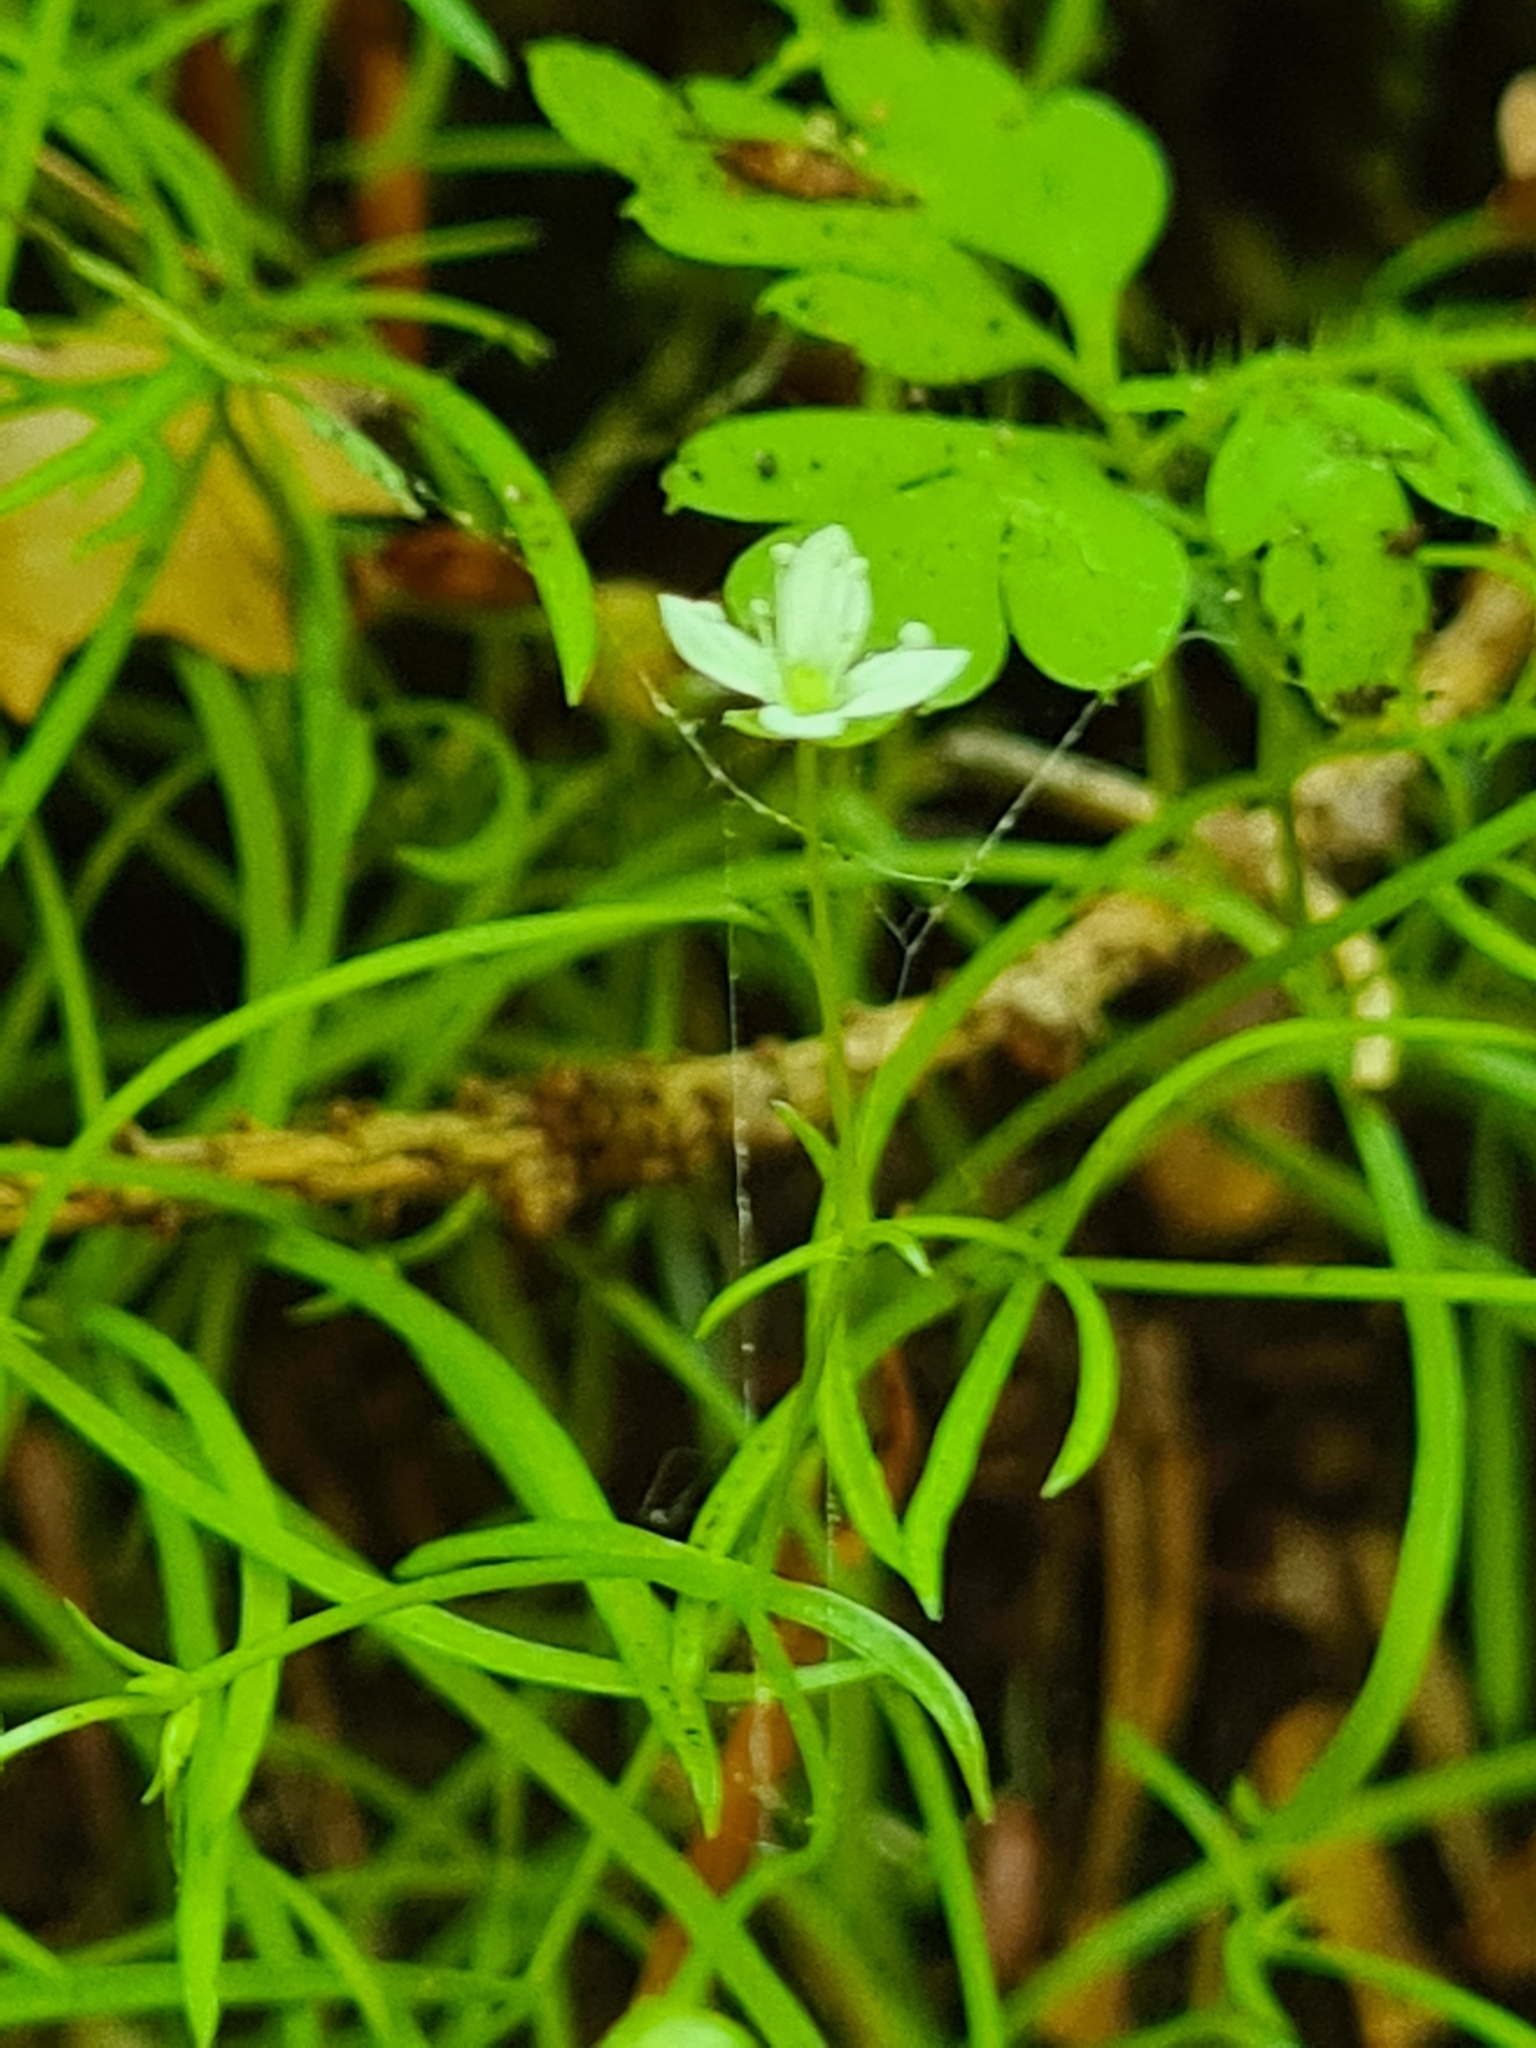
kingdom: Plantae
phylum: Tracheophyta
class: Magnoliopsida
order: Caryophyllales
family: Caryophyllaceae
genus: Moehringia
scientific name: Moehringia muscosa
